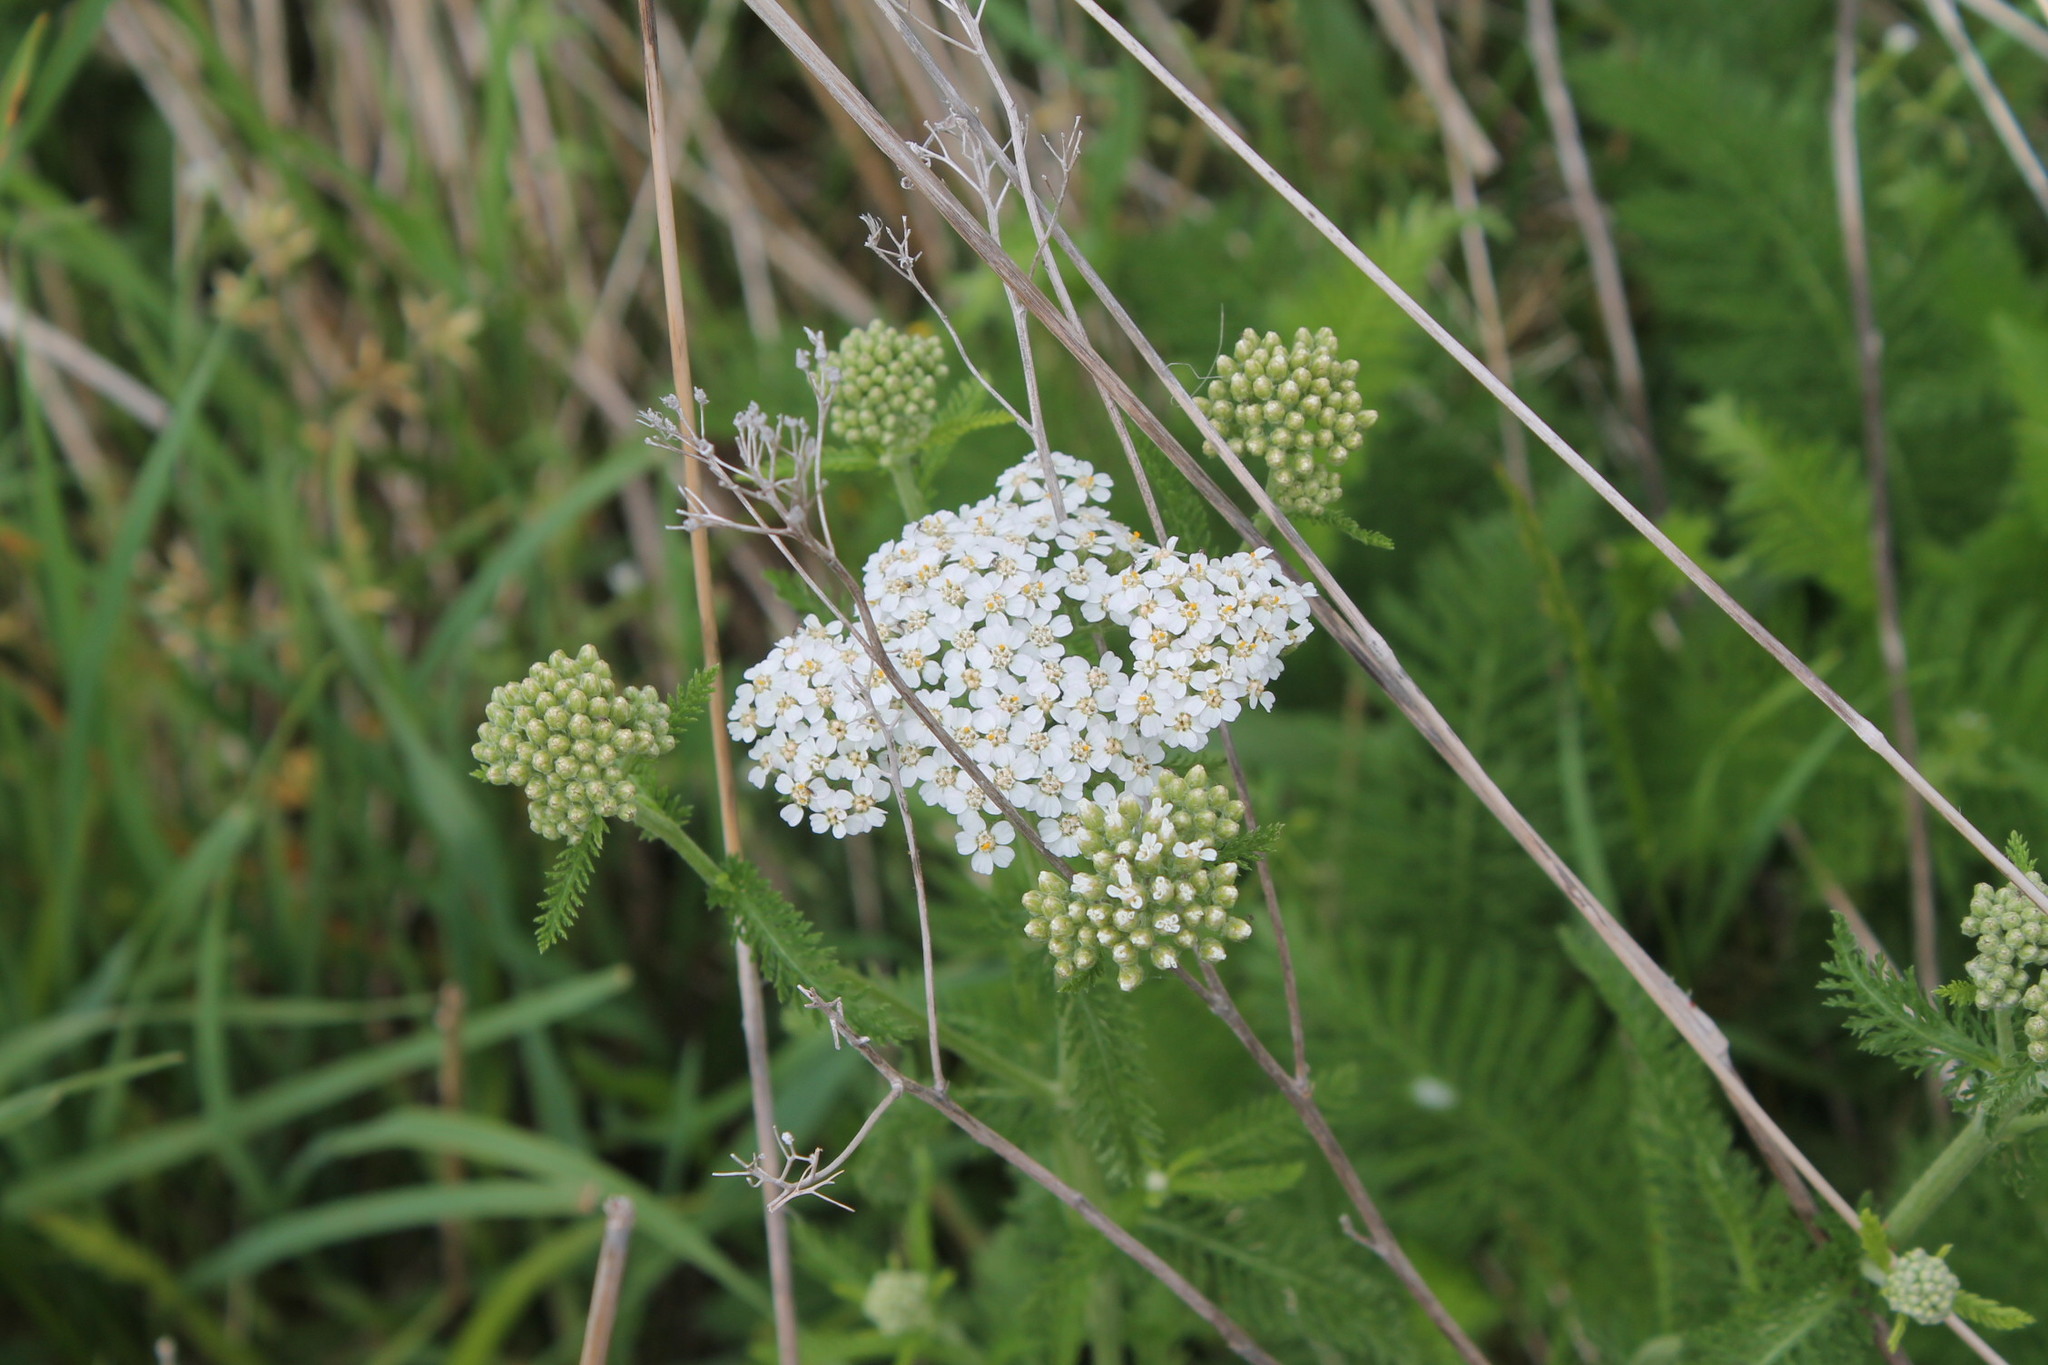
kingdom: Plantae
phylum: Tracheophyta
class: Magnoliopsida
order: Asterales
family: Asteraceae
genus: Achillea
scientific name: Achillea millefolium
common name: Yarrow
